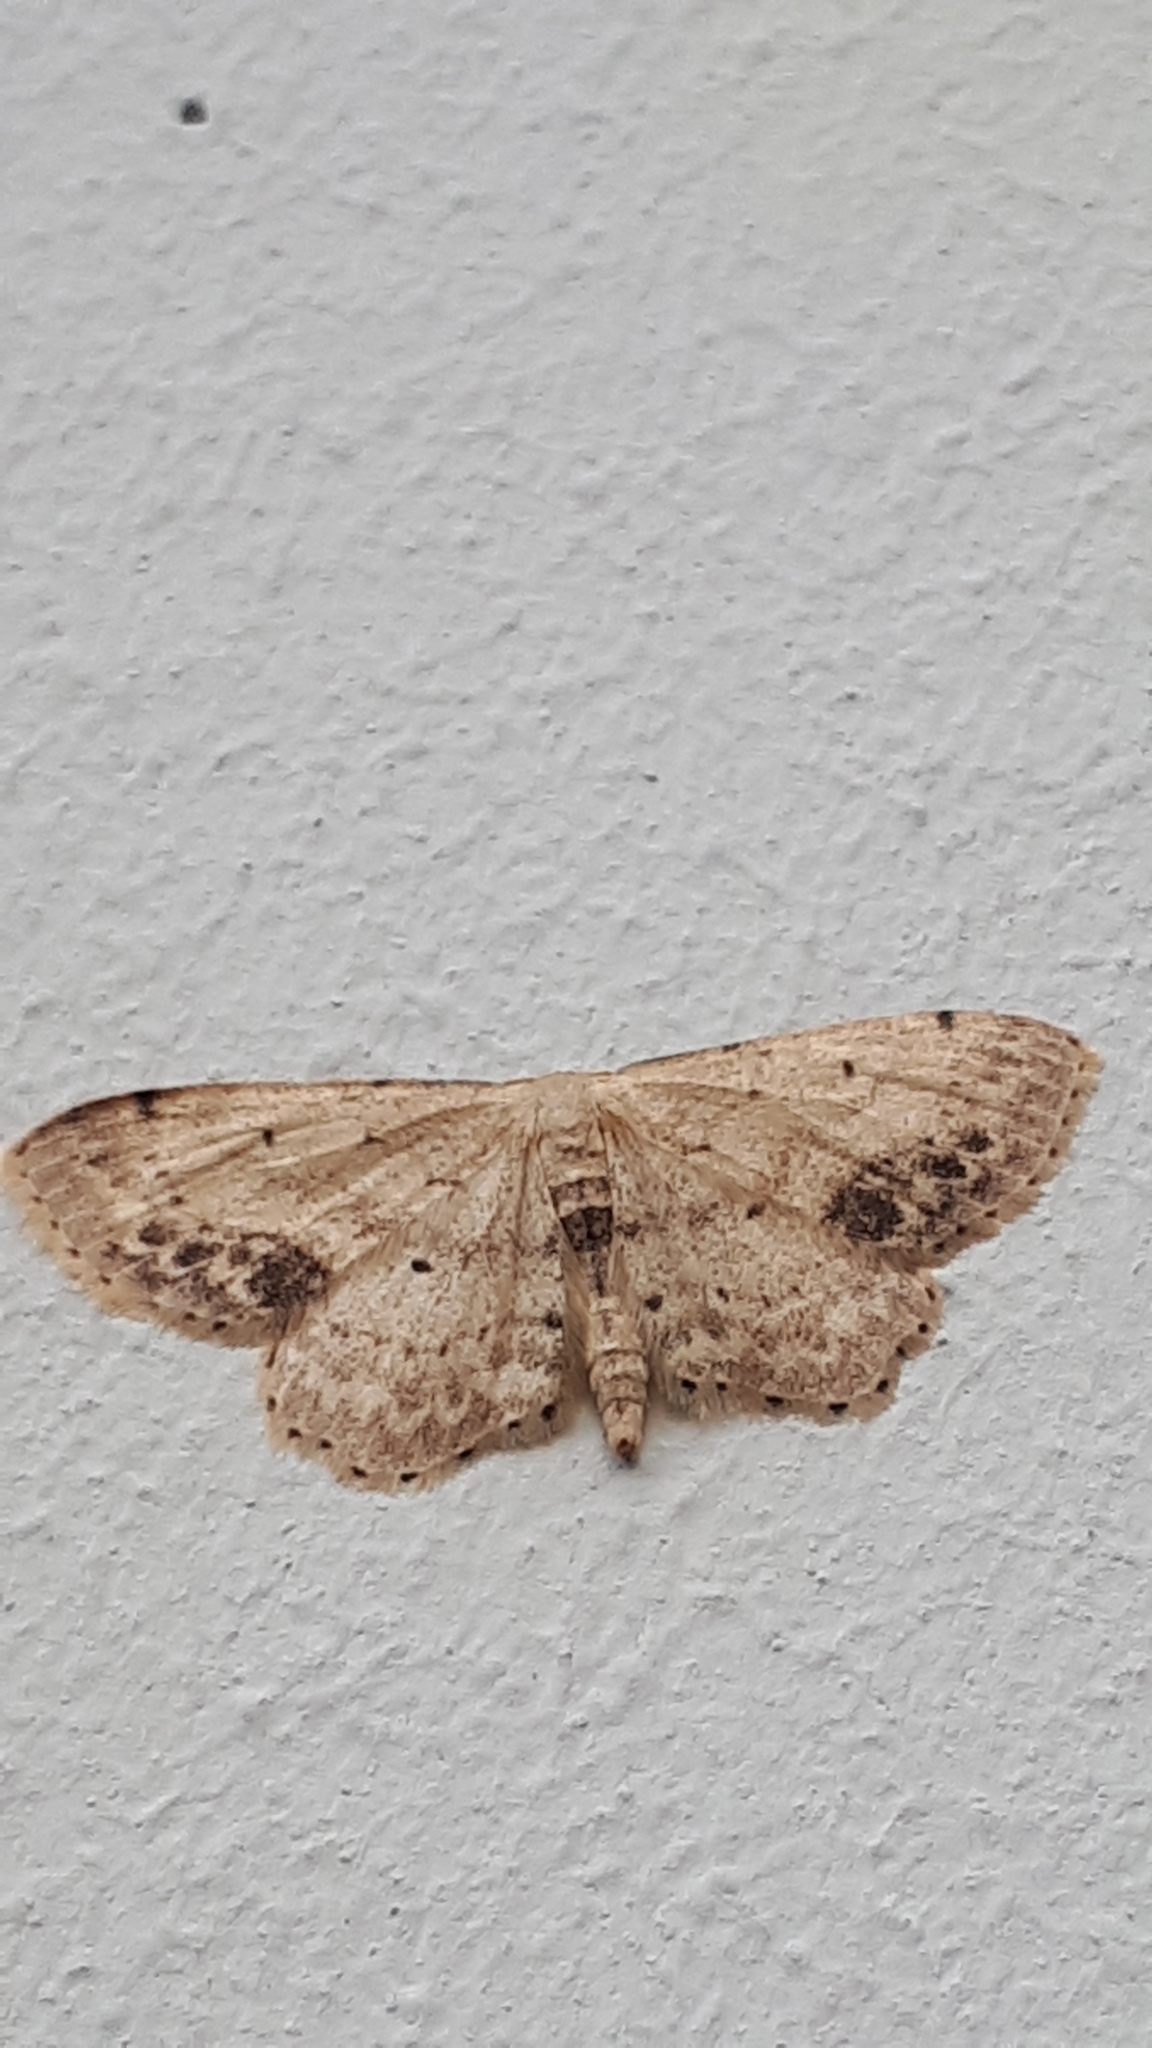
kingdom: Animalia
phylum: Arthropoda
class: Insecta
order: Lepidoptera
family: Geometridae
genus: Idaea
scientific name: Idaea dimidiata
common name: Single-dotted wave
